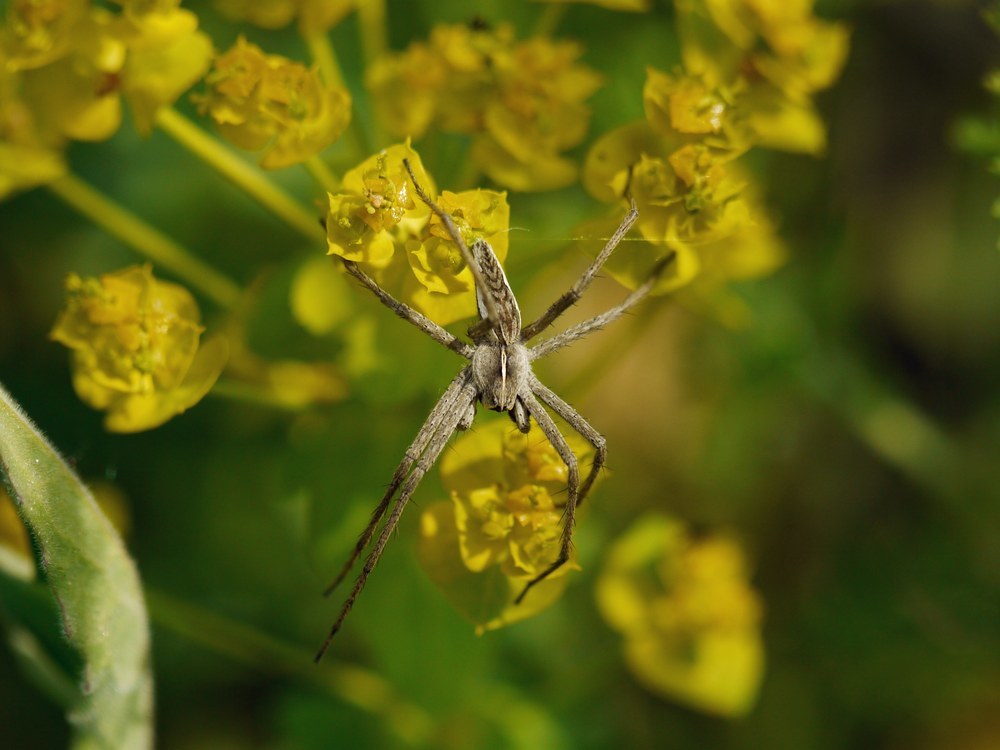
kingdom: Animalia
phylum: Arthropoda
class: Arachnida
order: Araneae
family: Pisauridae
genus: Pisaura
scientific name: Pisaura
